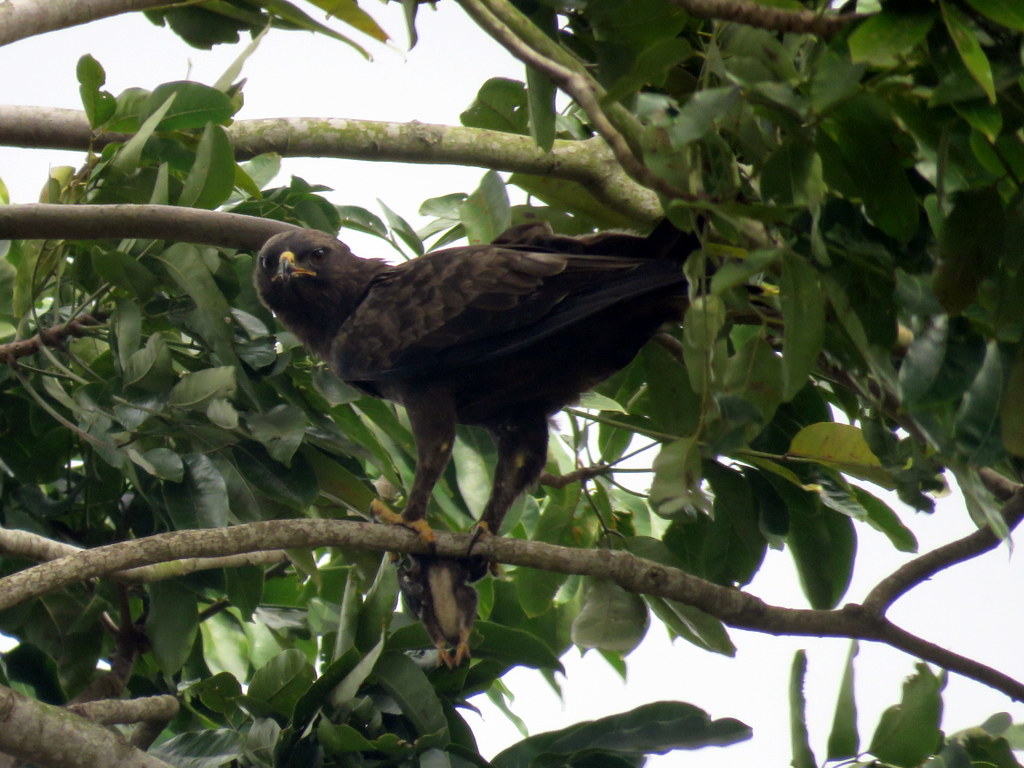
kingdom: Animalia
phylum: Chordata
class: Aves
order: Accipitriformes
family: Accipitridae
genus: Hieraaetus
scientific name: Hieraaetus wahlbergi
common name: Wahlberg's eagle
